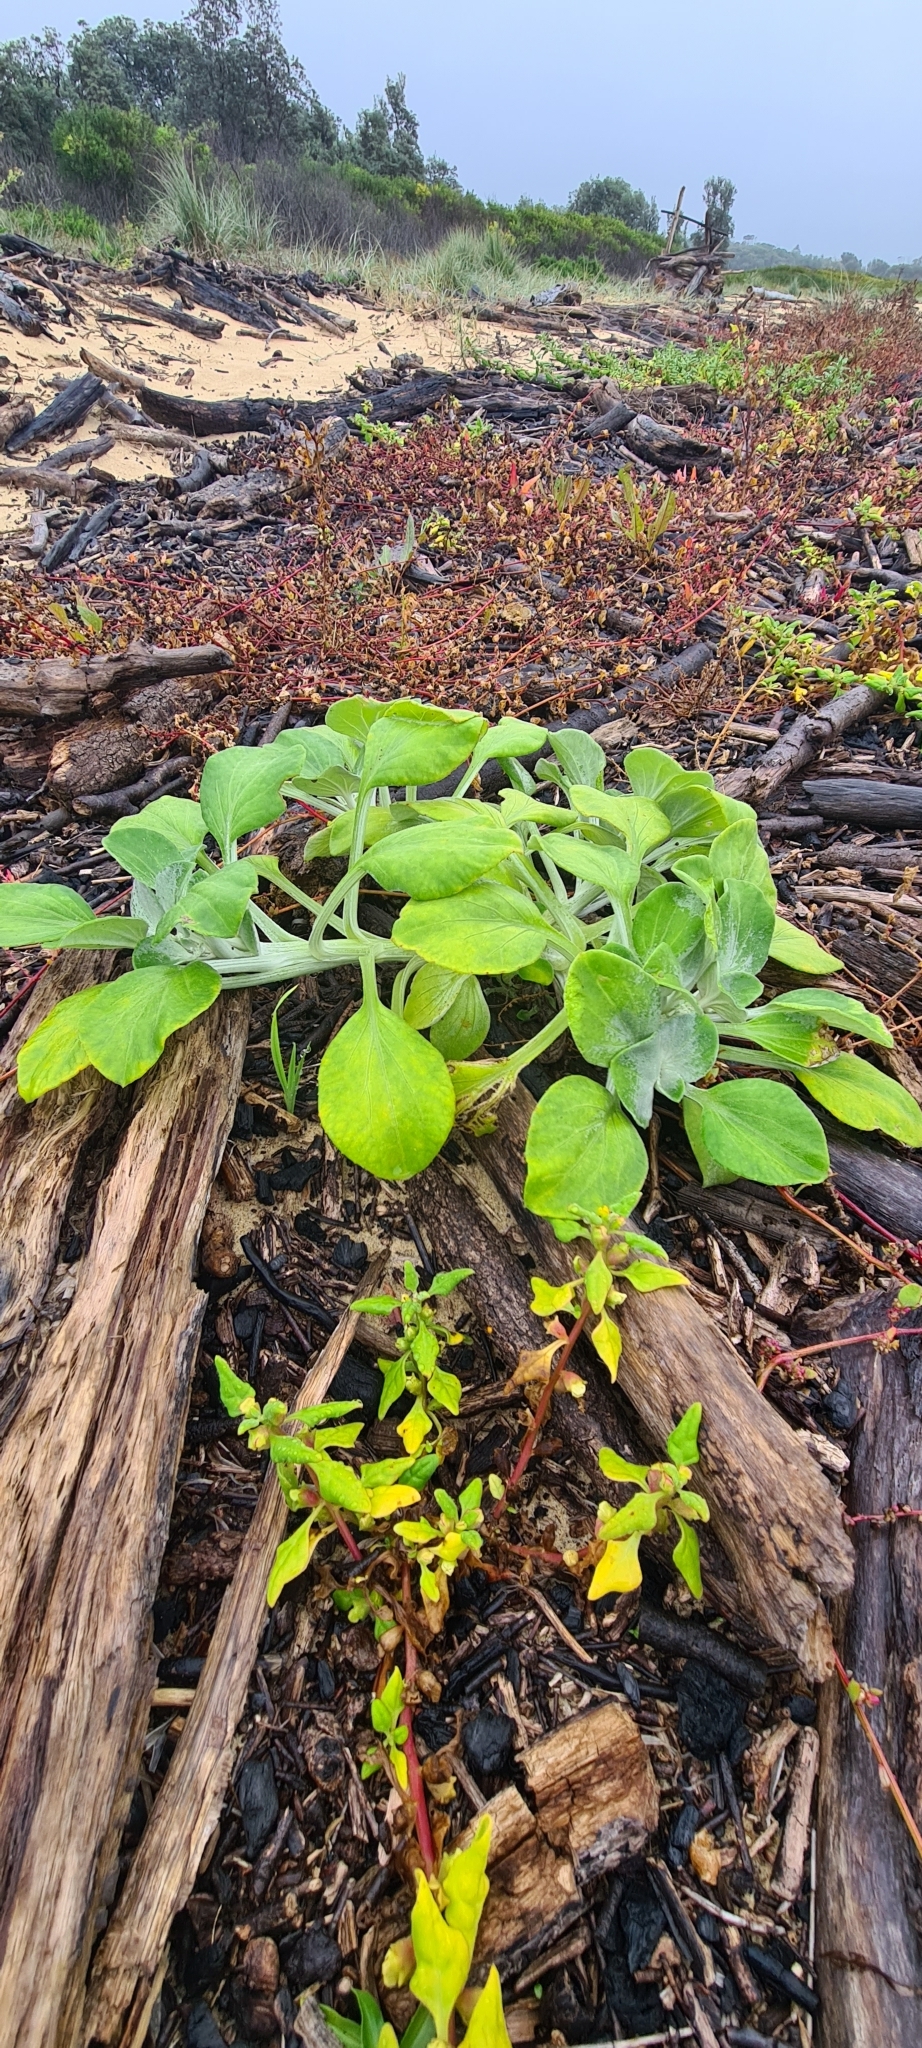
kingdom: Plantae
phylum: Tracheophyta
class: Magnoliopsida
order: Asterales
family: Asteraceae
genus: Arctotheca
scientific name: Arctotheca populifolia
